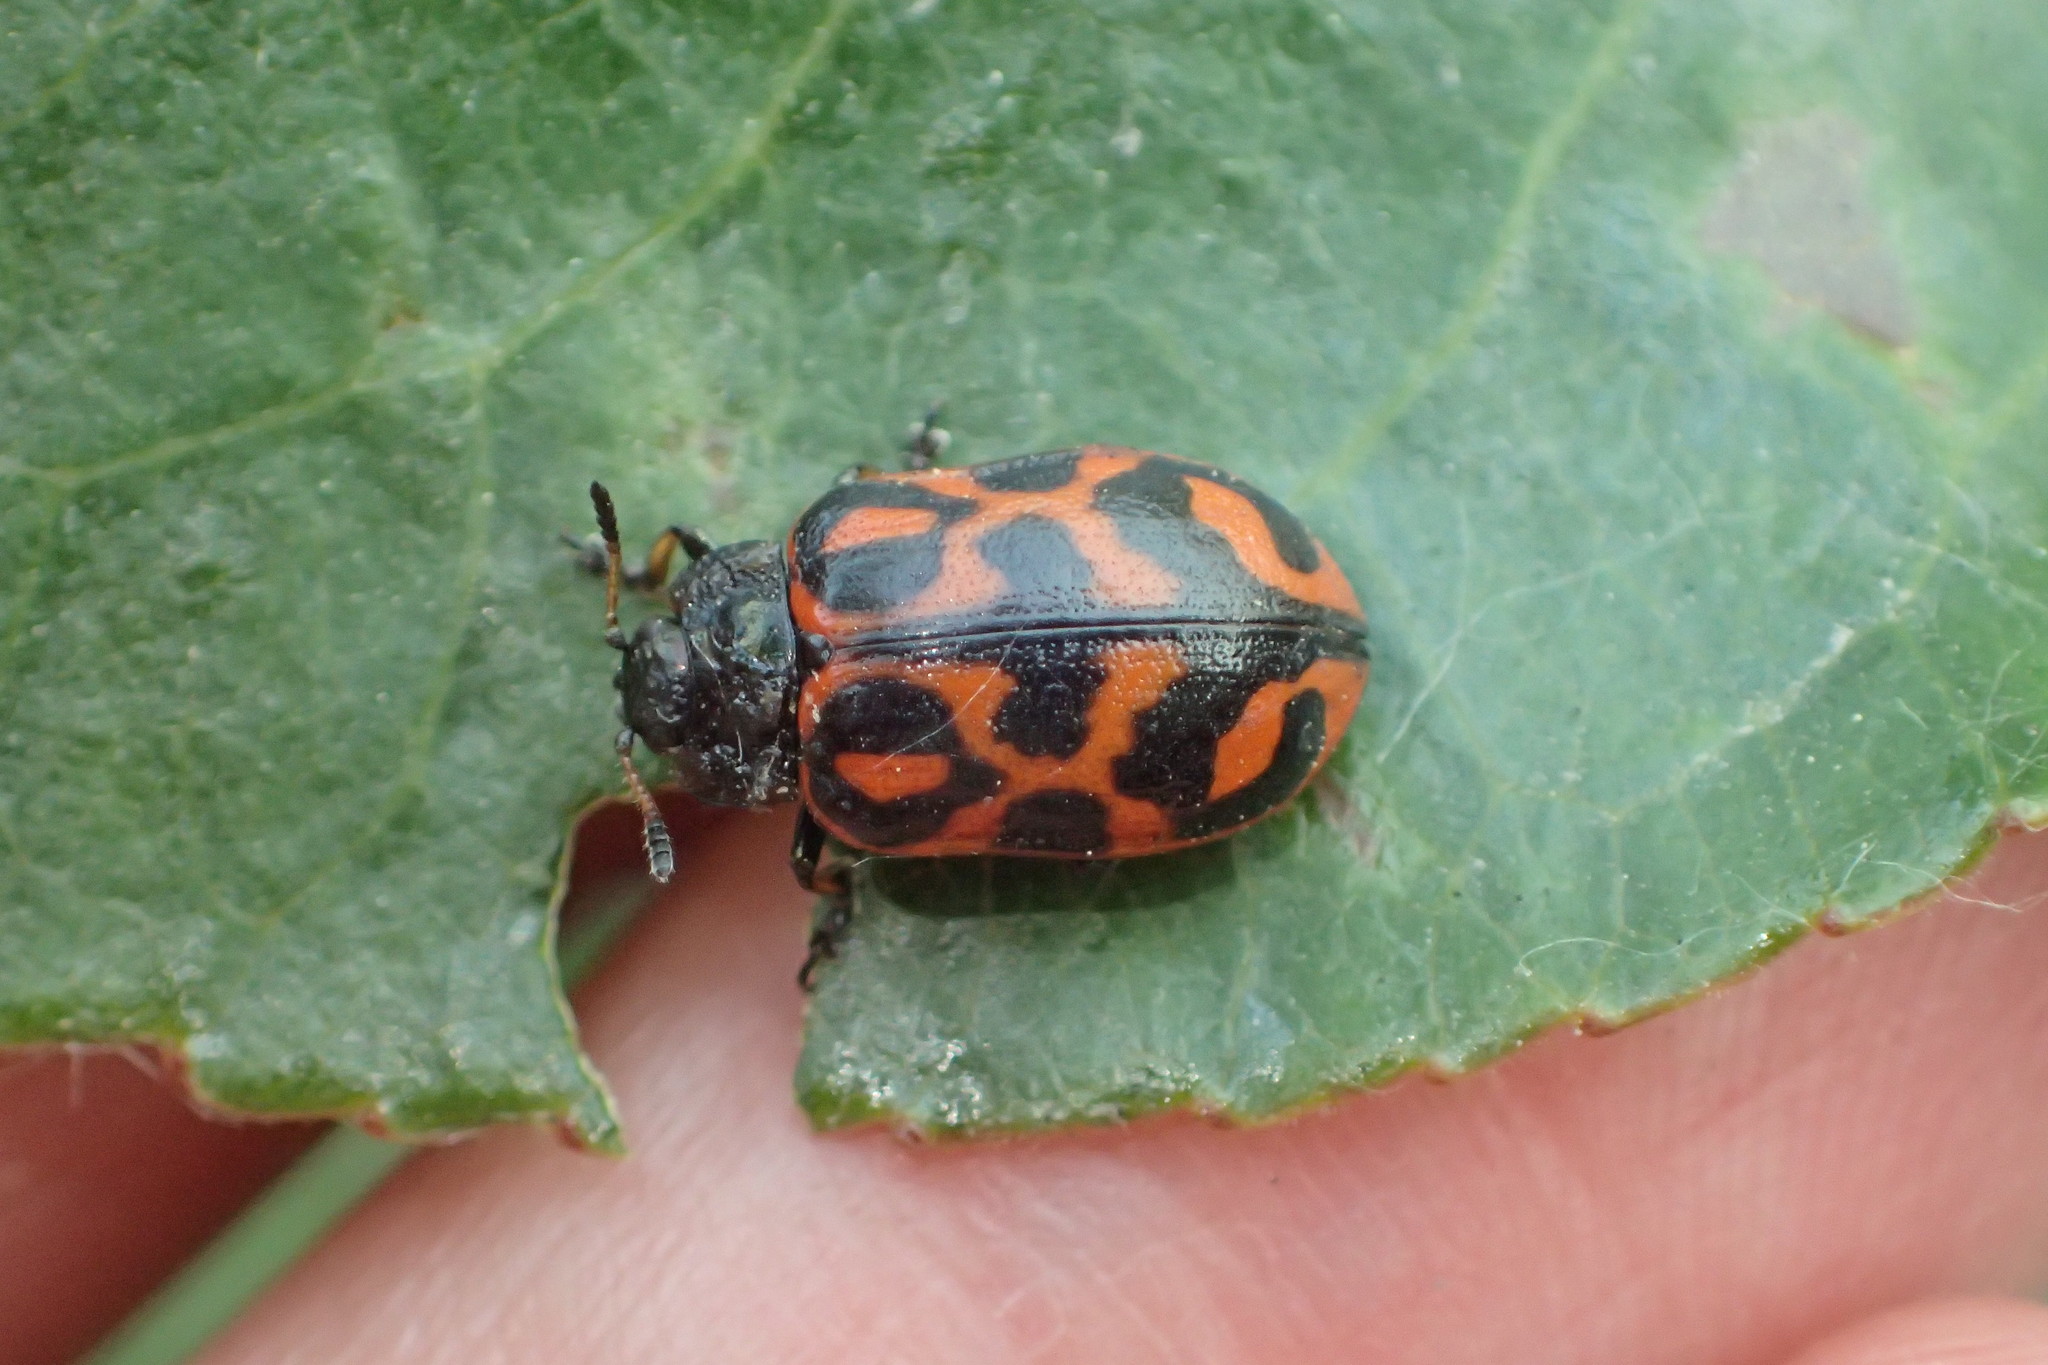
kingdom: Animalia
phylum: Arthropoda
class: Insecta
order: Coleoptera
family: Chrysomelidae
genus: Chrysomela
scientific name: Chrysomela falsa
